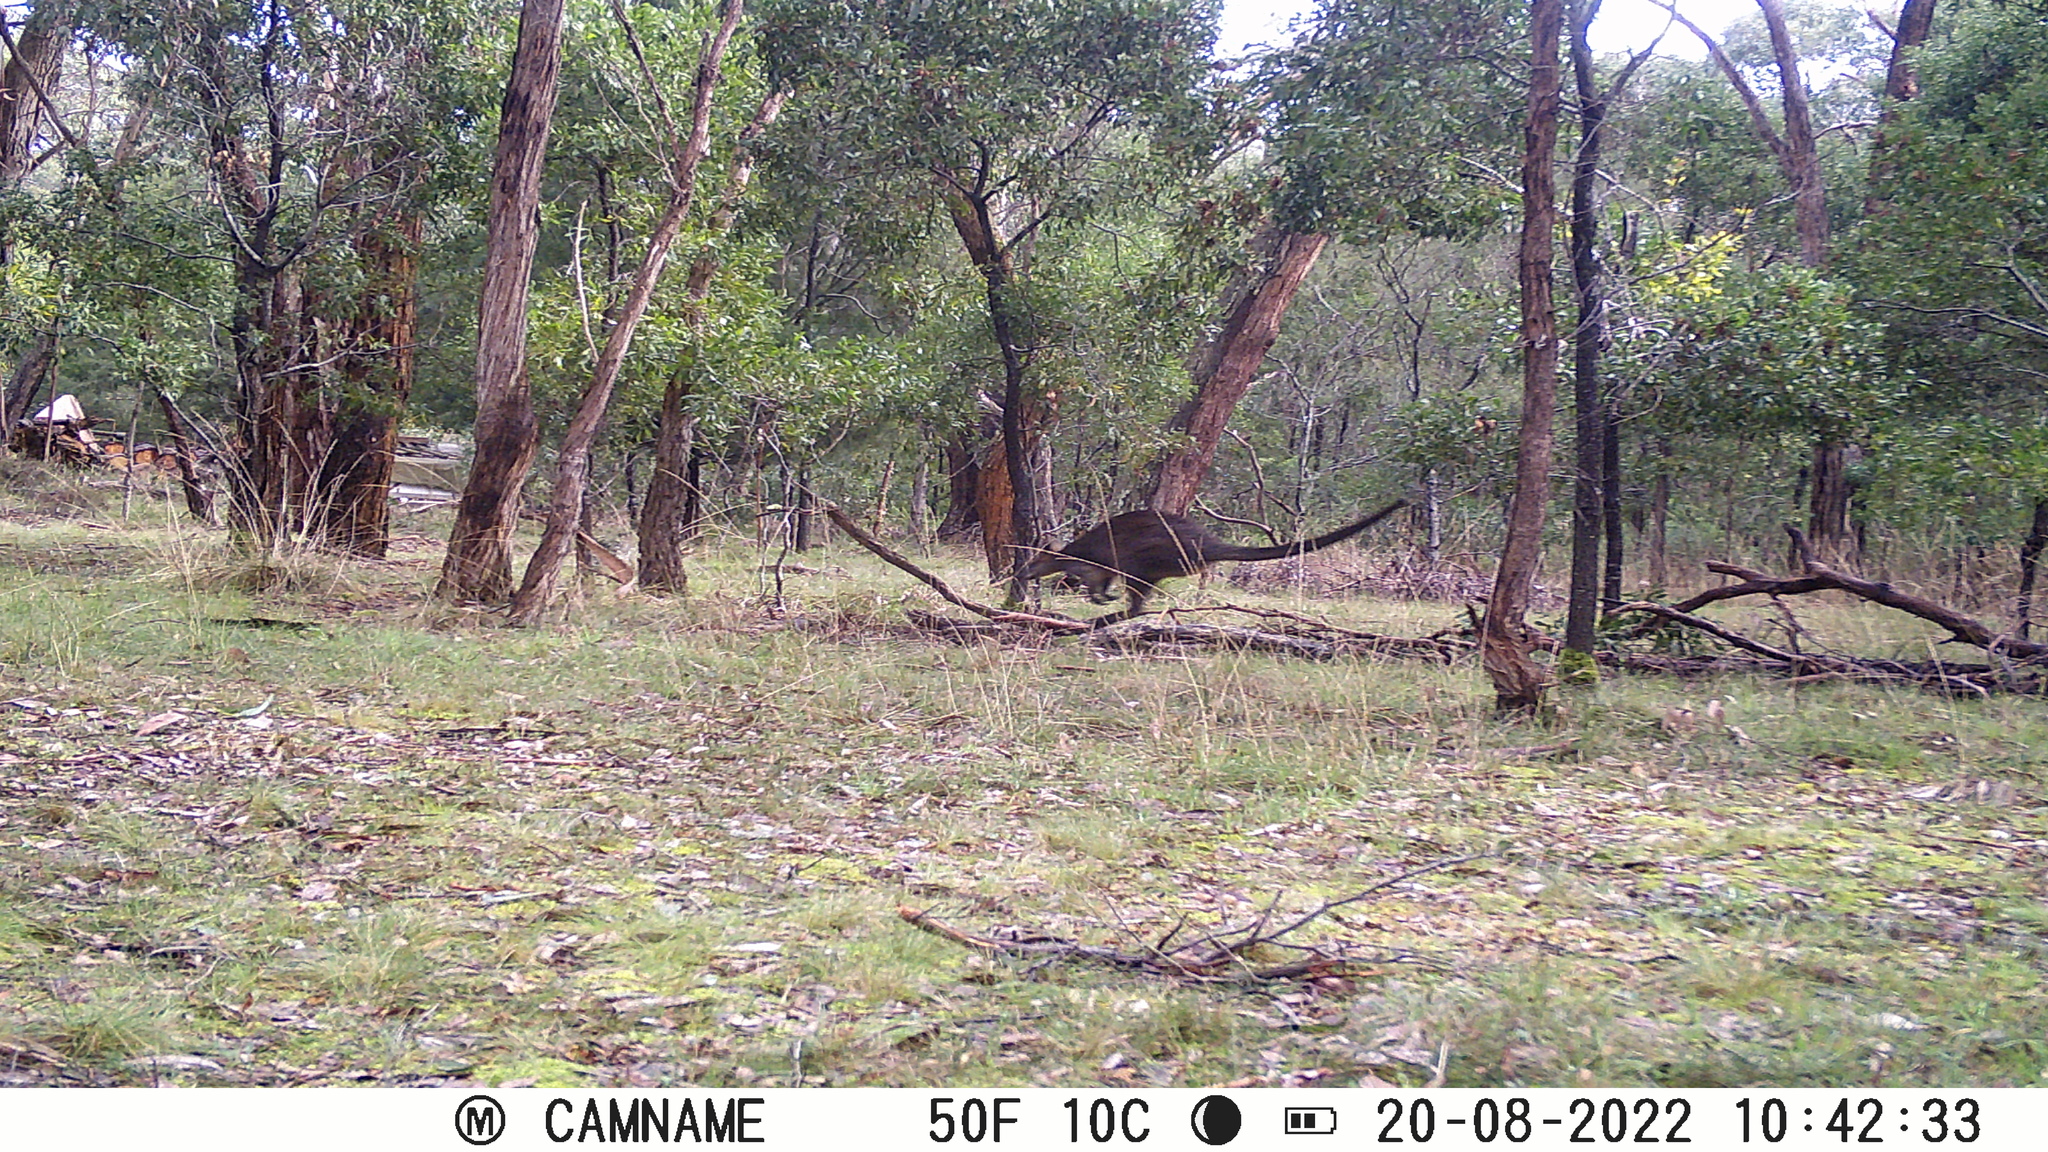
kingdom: Animalia
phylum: Chordata
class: Mammalia
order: Diprotodontia
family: Macropodidae
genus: Wallabia
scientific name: Wallabia bicolor
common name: Swamp wallaby
